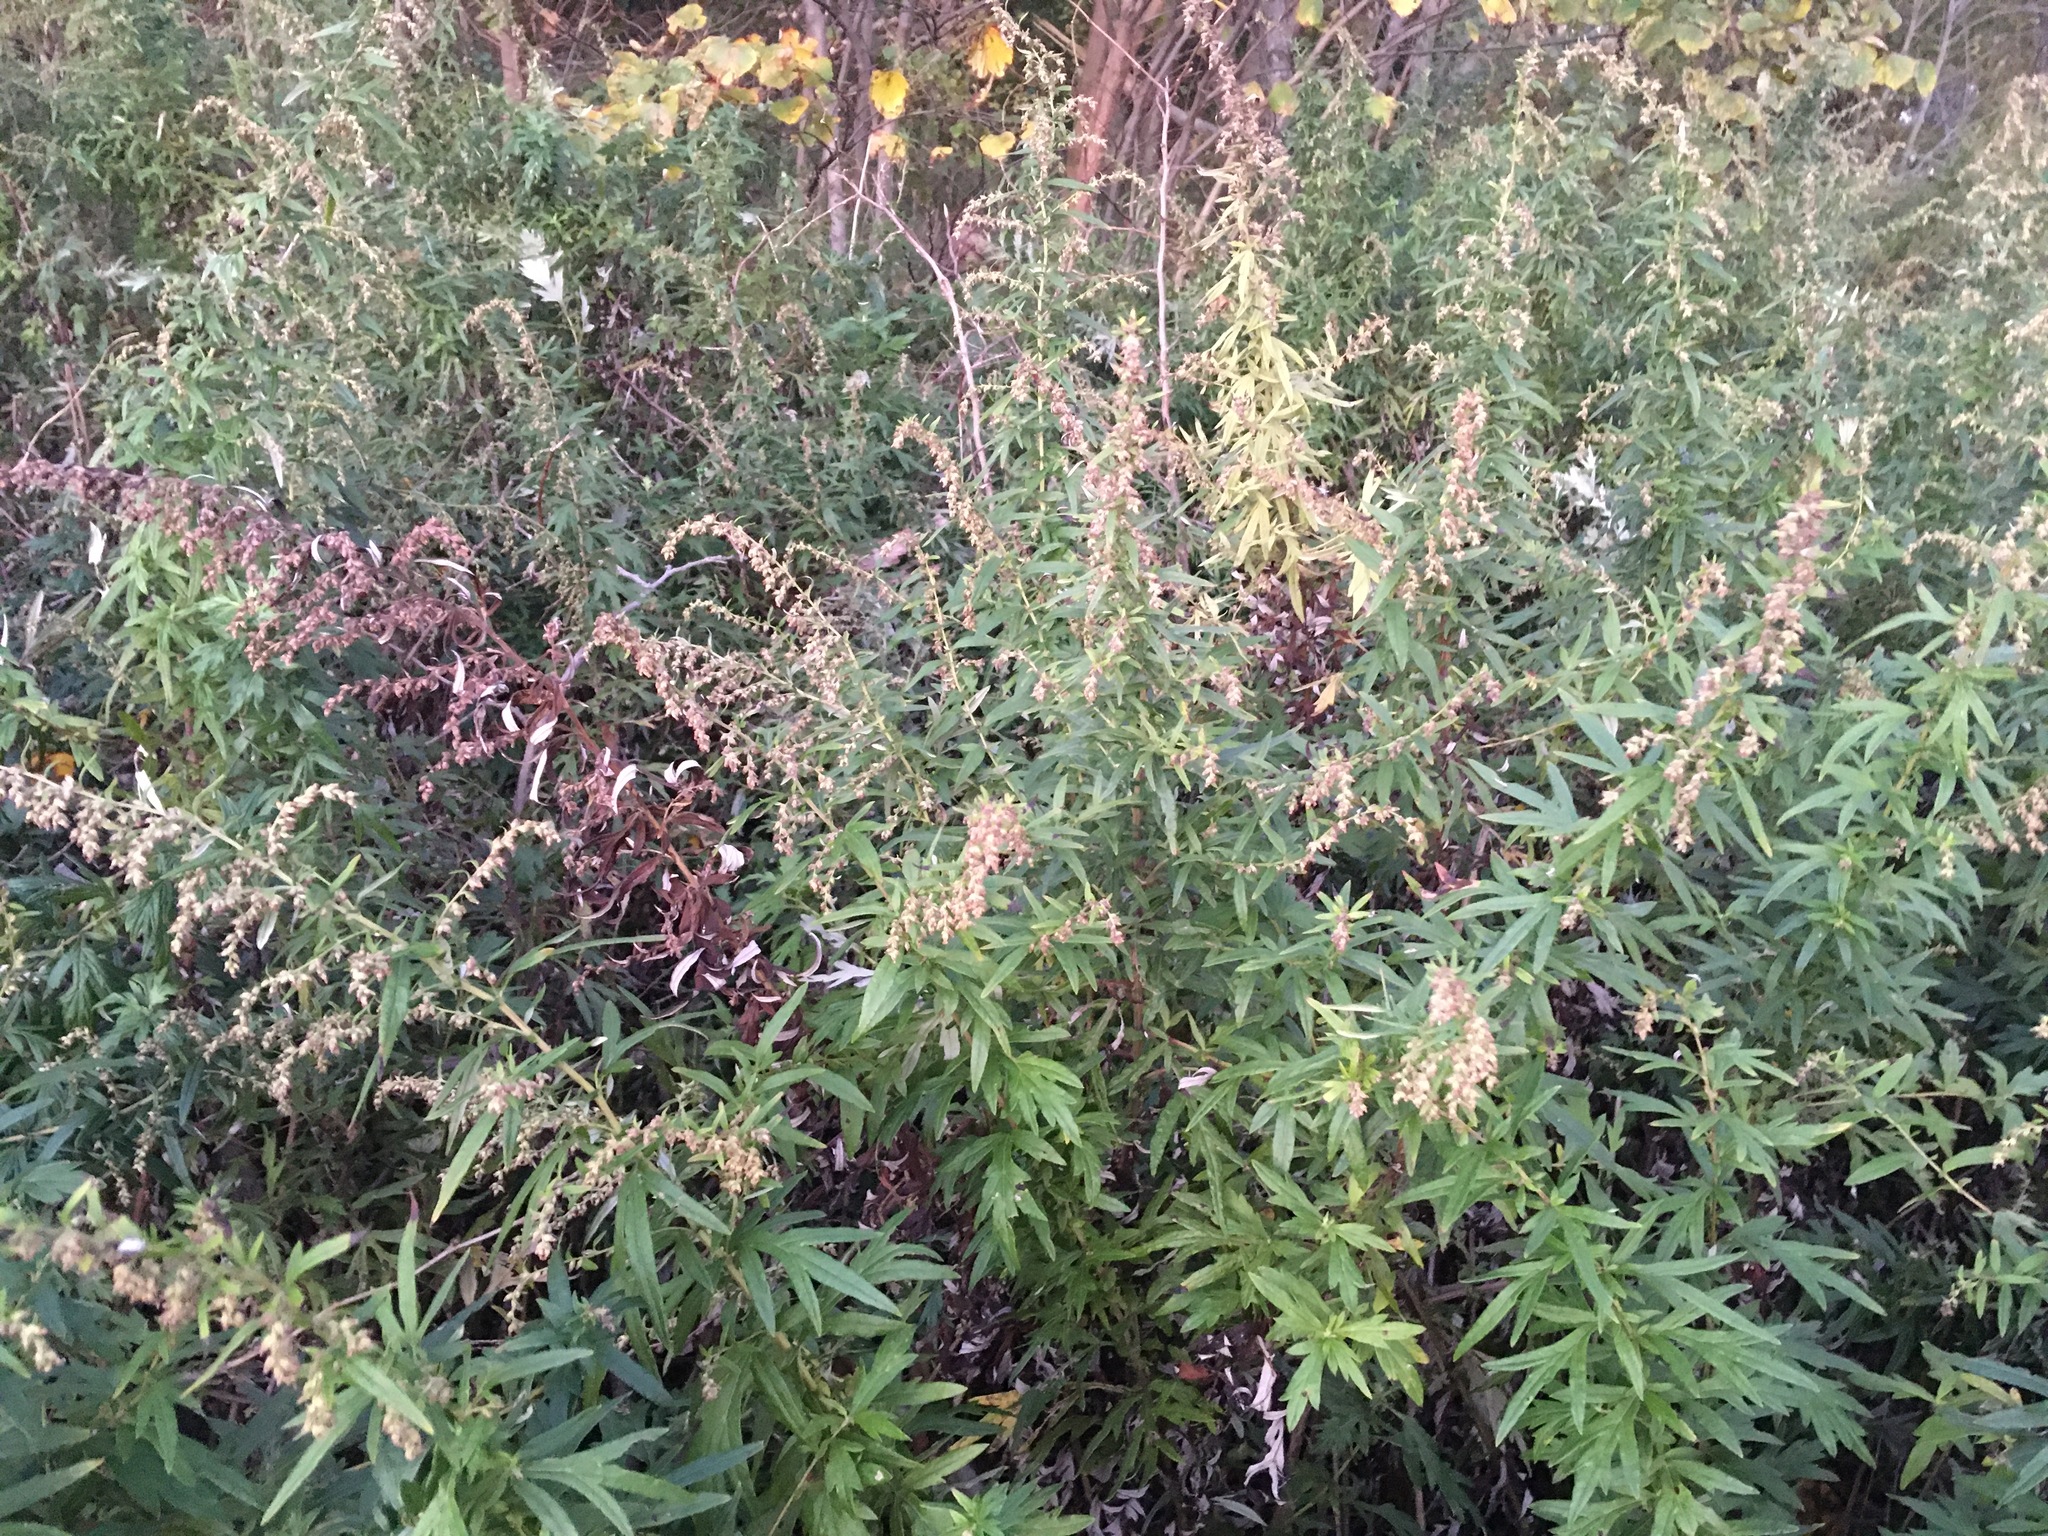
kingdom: Plantae
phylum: Tracheophyta
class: Magnoliopsida
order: Asterales
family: Asteraceae
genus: Artemisia
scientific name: Artemisia vulgaris
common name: Mugwort
